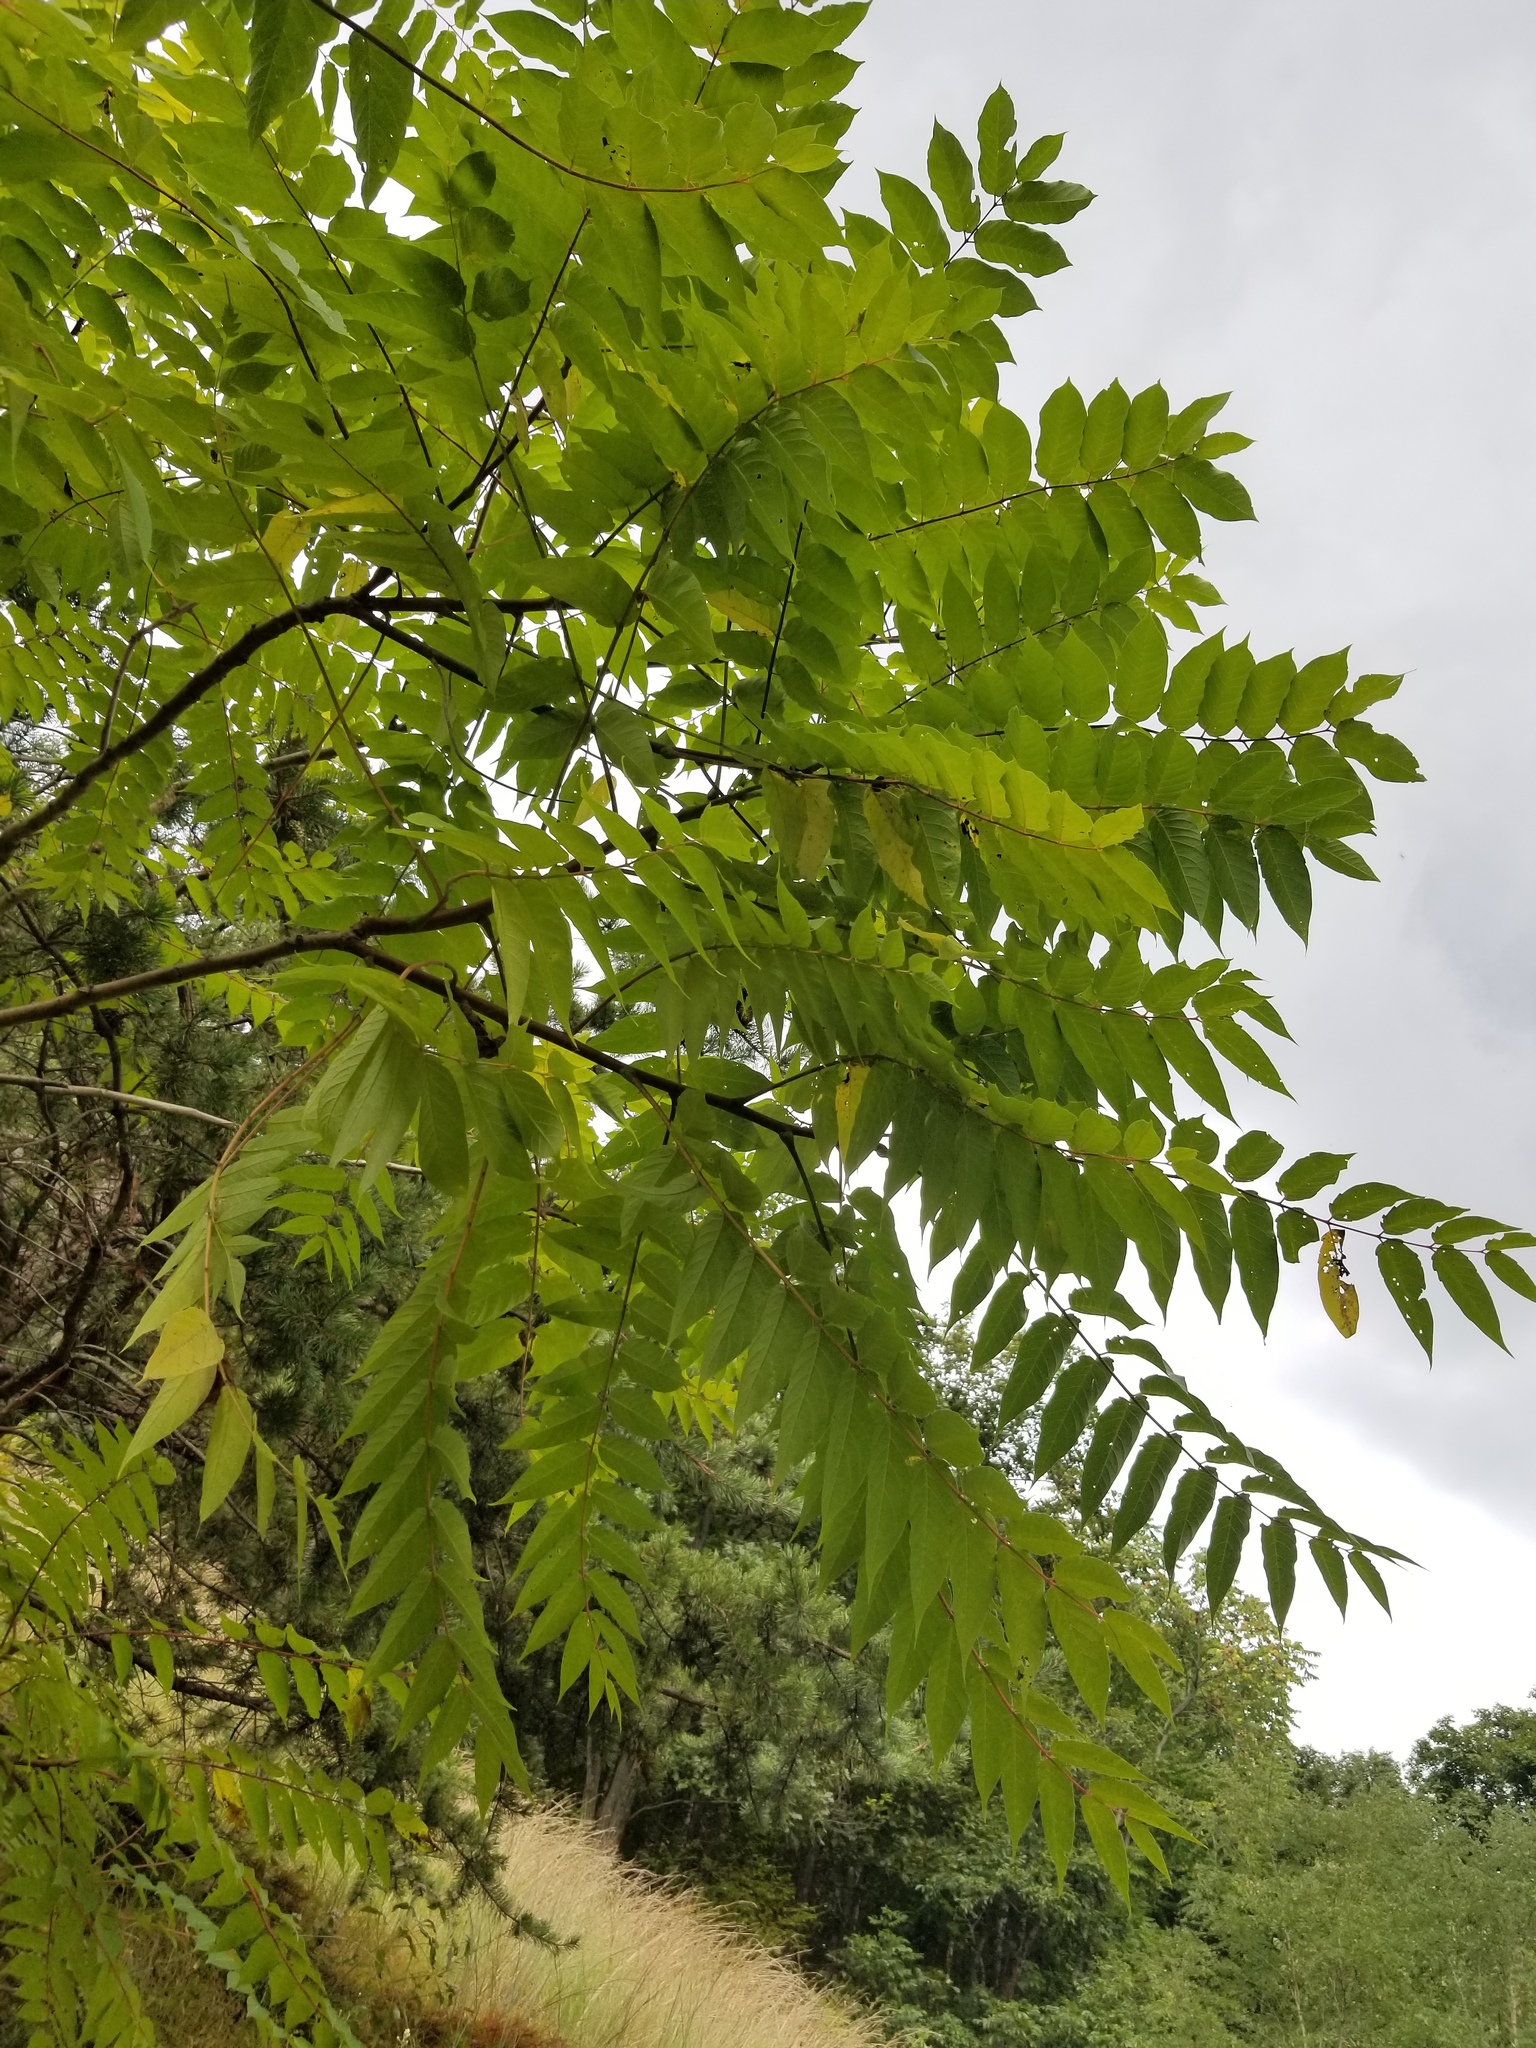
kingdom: Plantae
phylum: Tracheophyta
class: Magnoliopsida
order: Sapindales
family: Simaroubaceae
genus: Ailanthus
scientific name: Ailanthus altissima
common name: Tree-of-heaven
